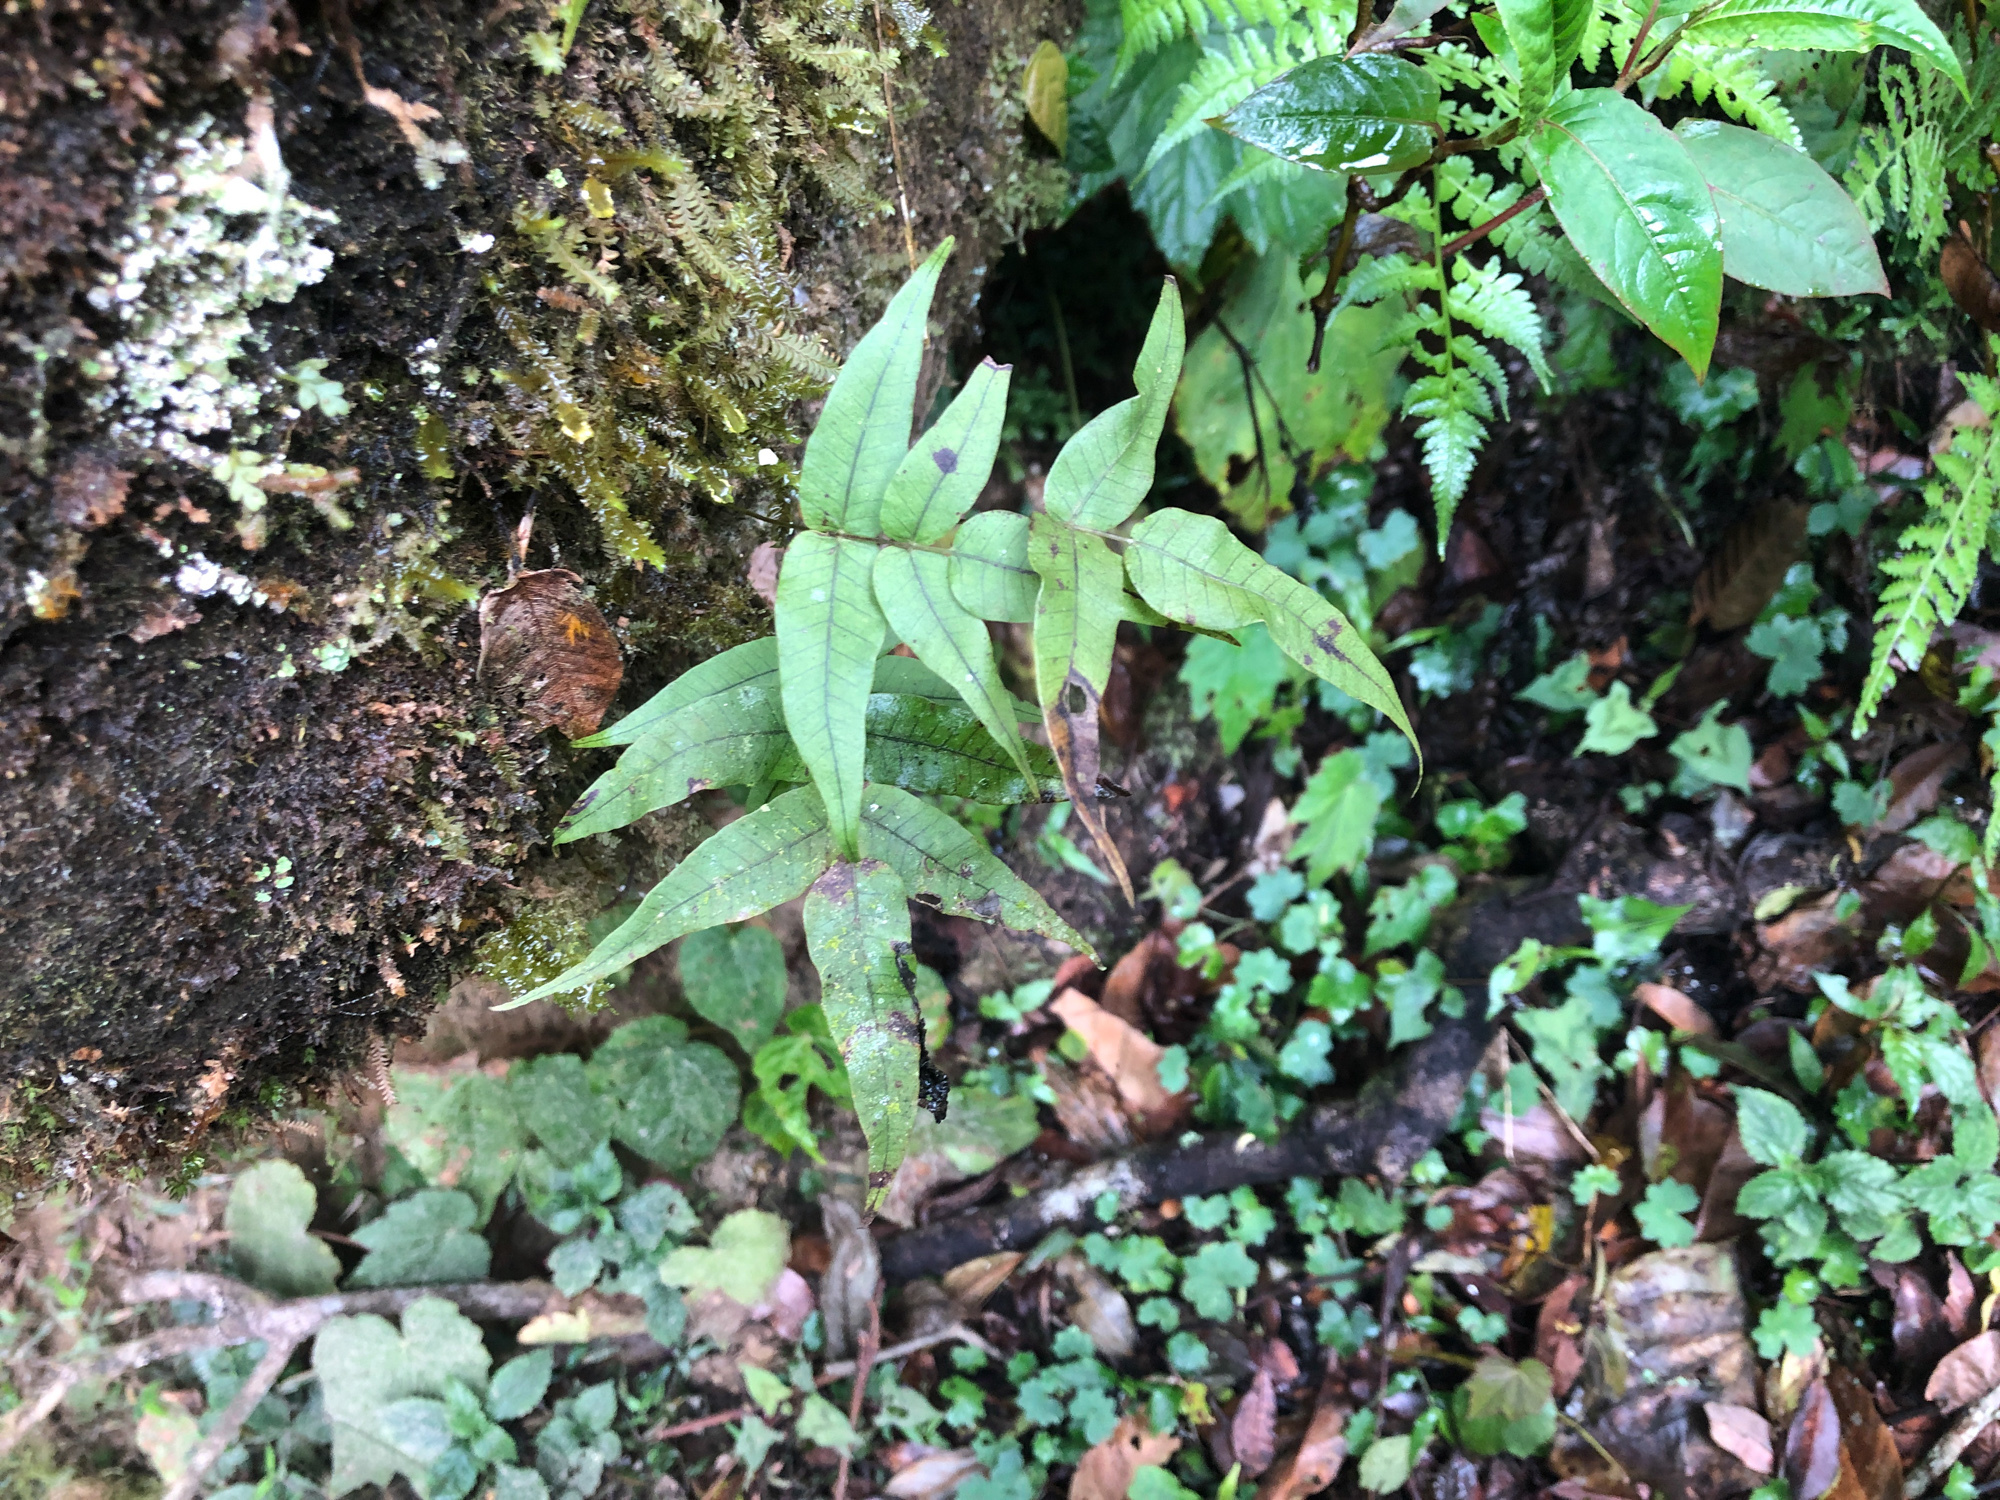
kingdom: Plantae
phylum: Tracheophyta
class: Polypodiopsida
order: Polypodiales
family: Polypodiaceae
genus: Selliguea
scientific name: Selliguea quasidivaricata
